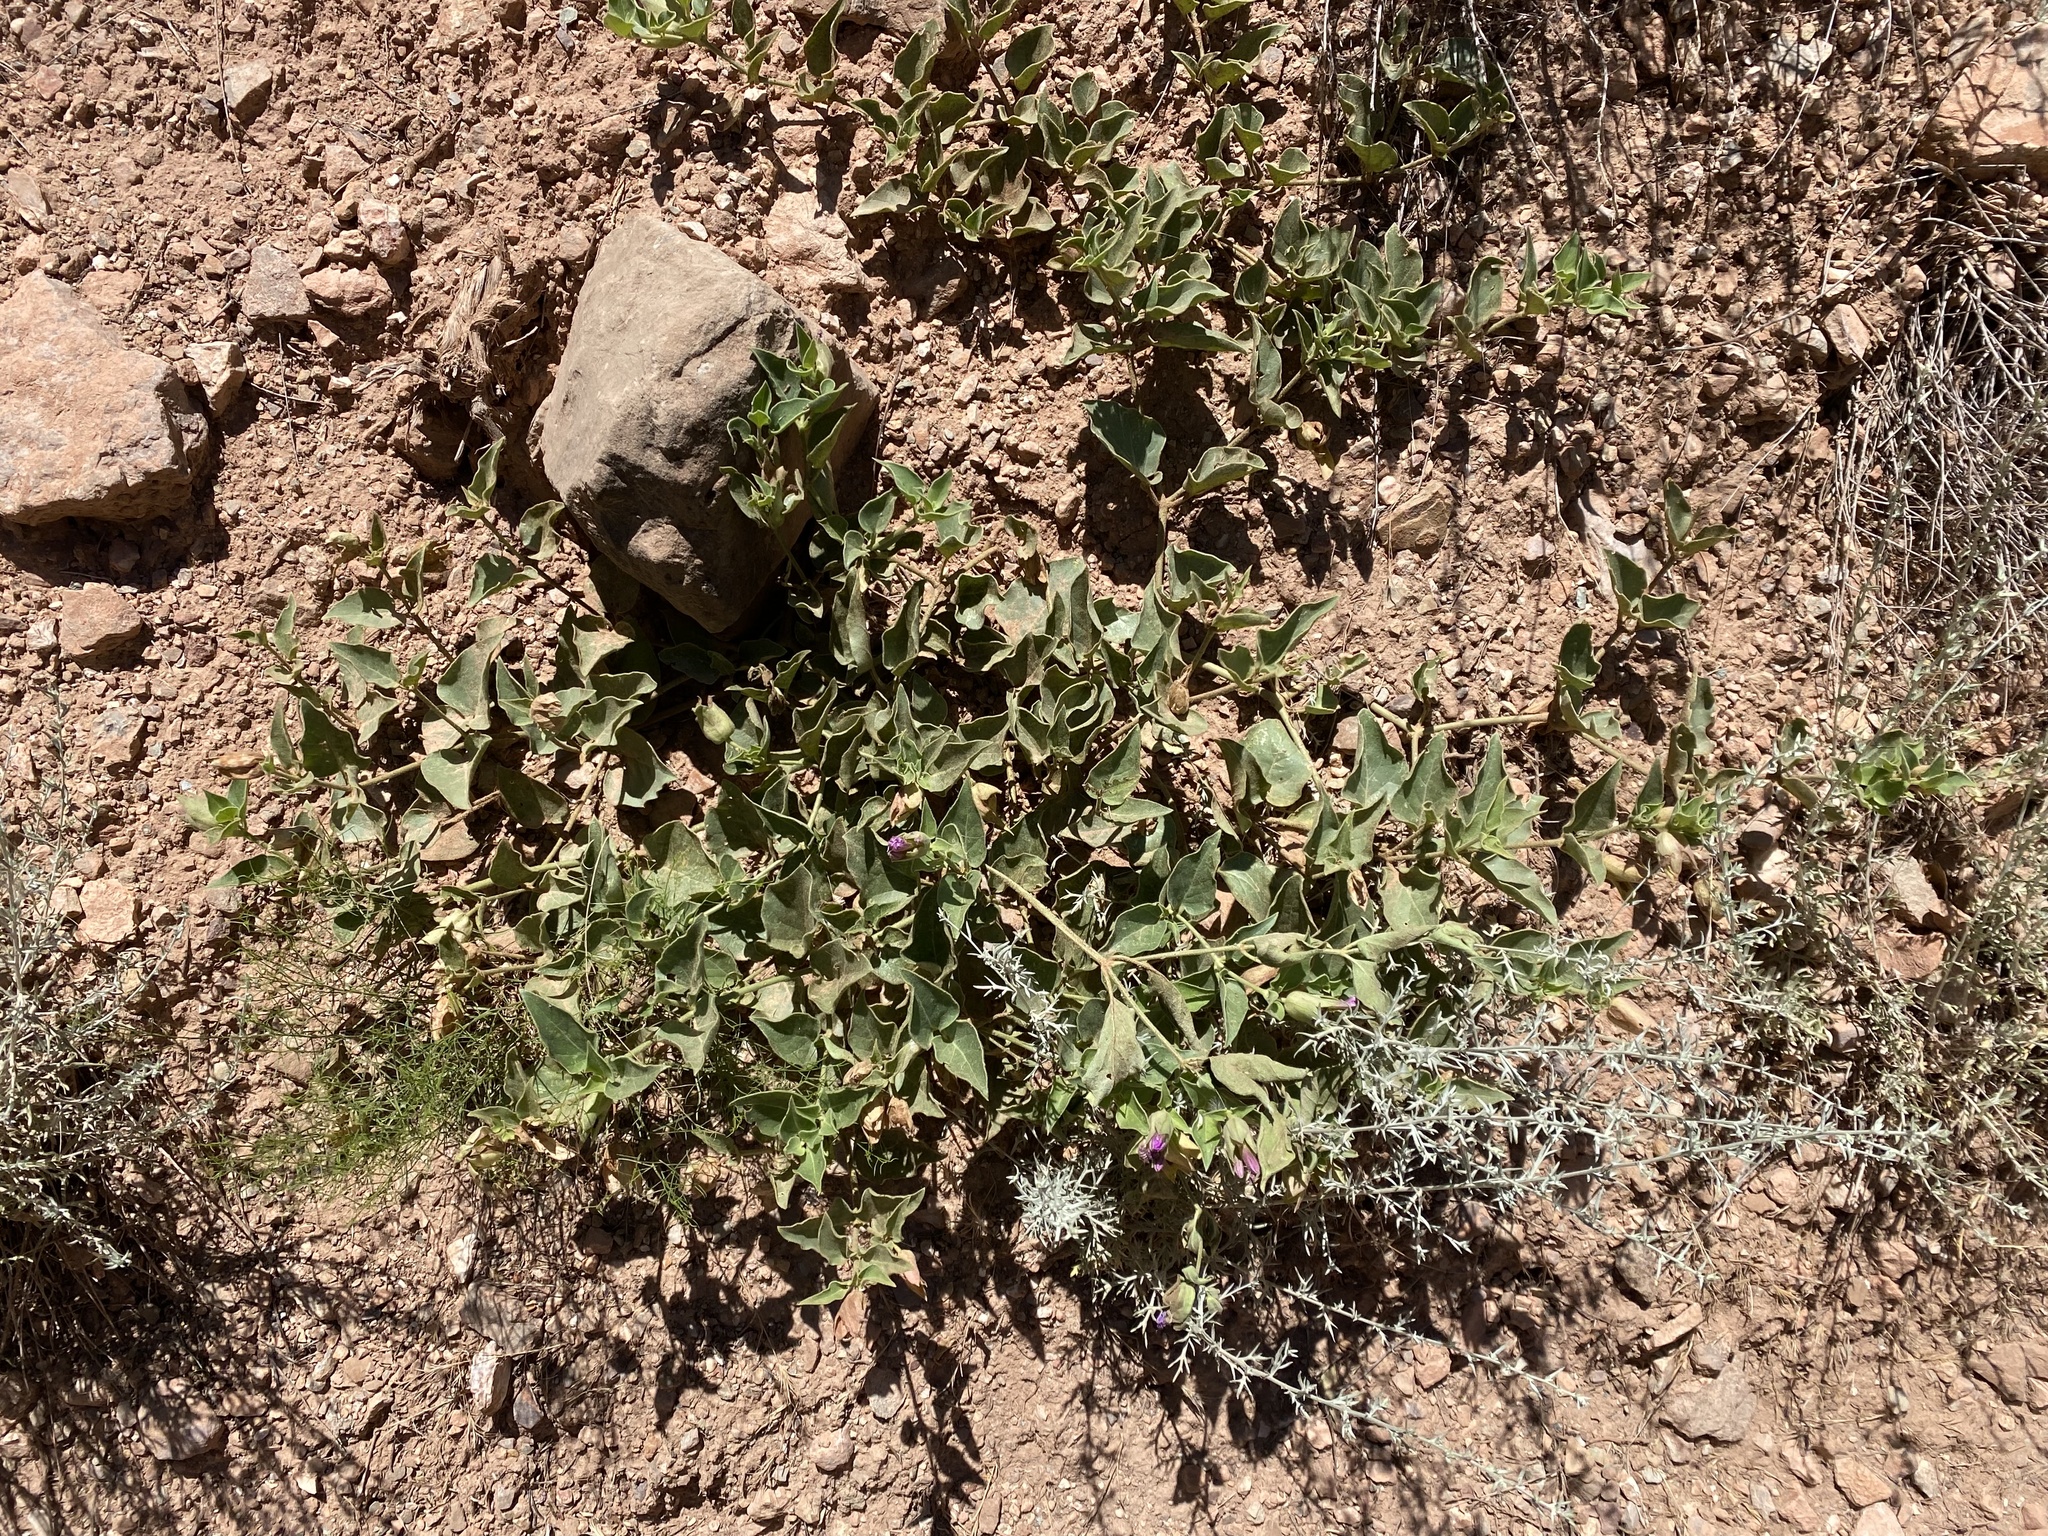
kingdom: Plantae
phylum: Tracheophyta
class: Magnoliopsida
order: Caryophyllales
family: Nyctaginaceae
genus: Mirabilis
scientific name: Mirabilis multiflora
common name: Froebel's four-o'clock
